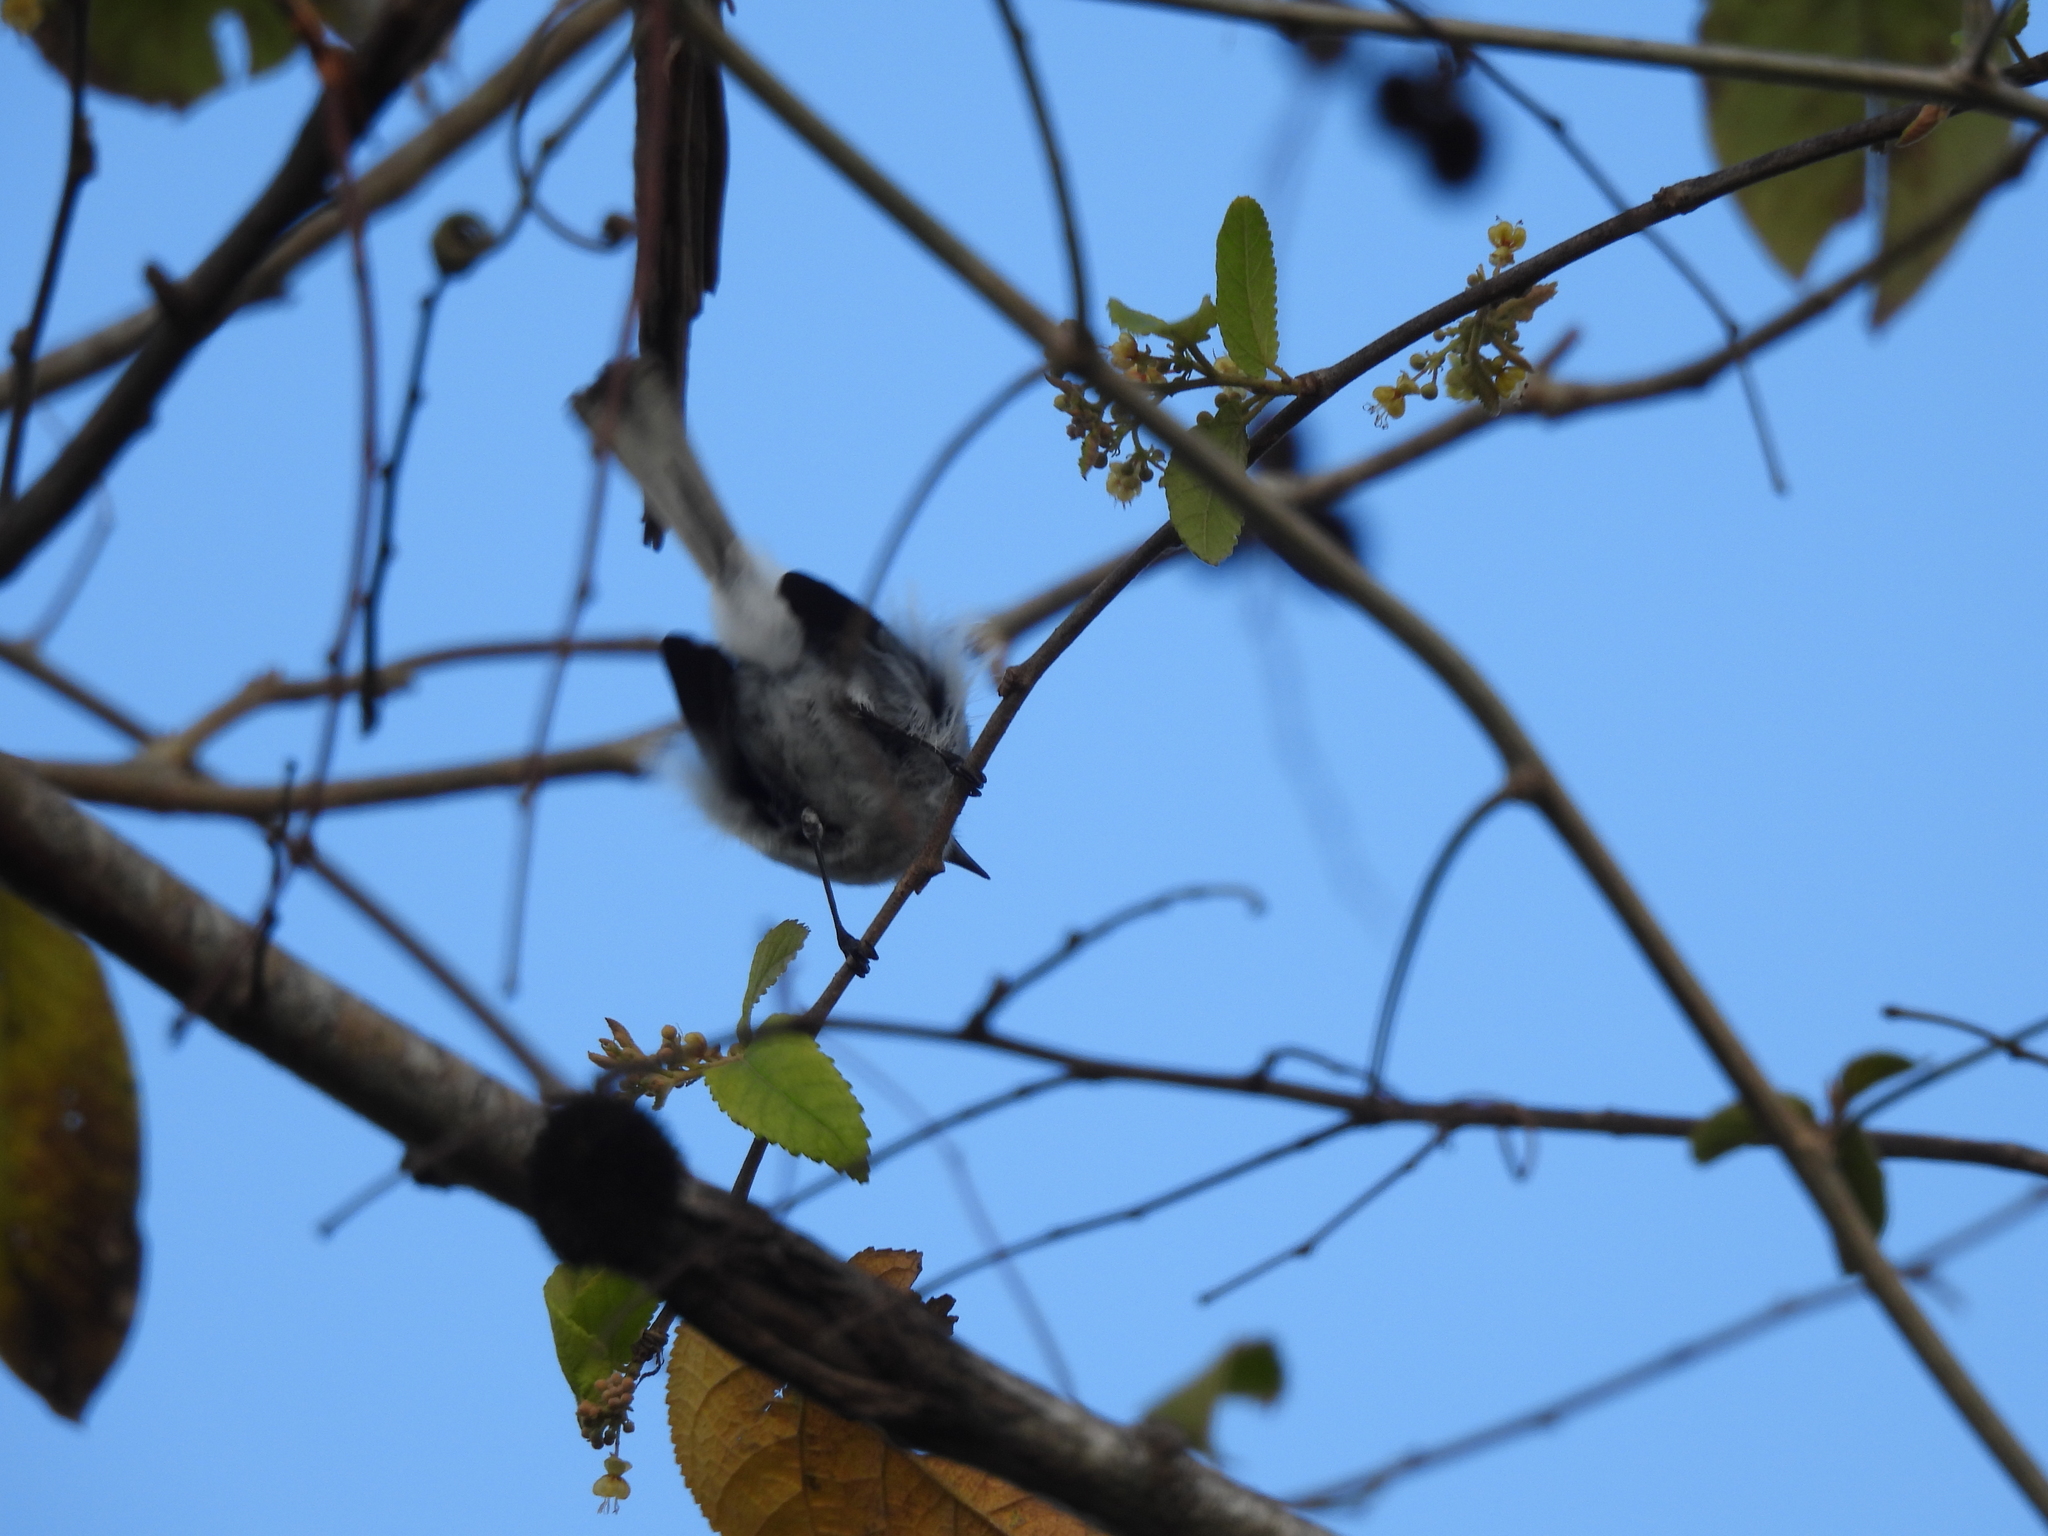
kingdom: Animalia
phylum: Chordata
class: Aves
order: Passeriformes
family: Polioptilidae
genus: Polioptila
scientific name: Polioptila caerulea
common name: Blue-gray gnatcatcher
